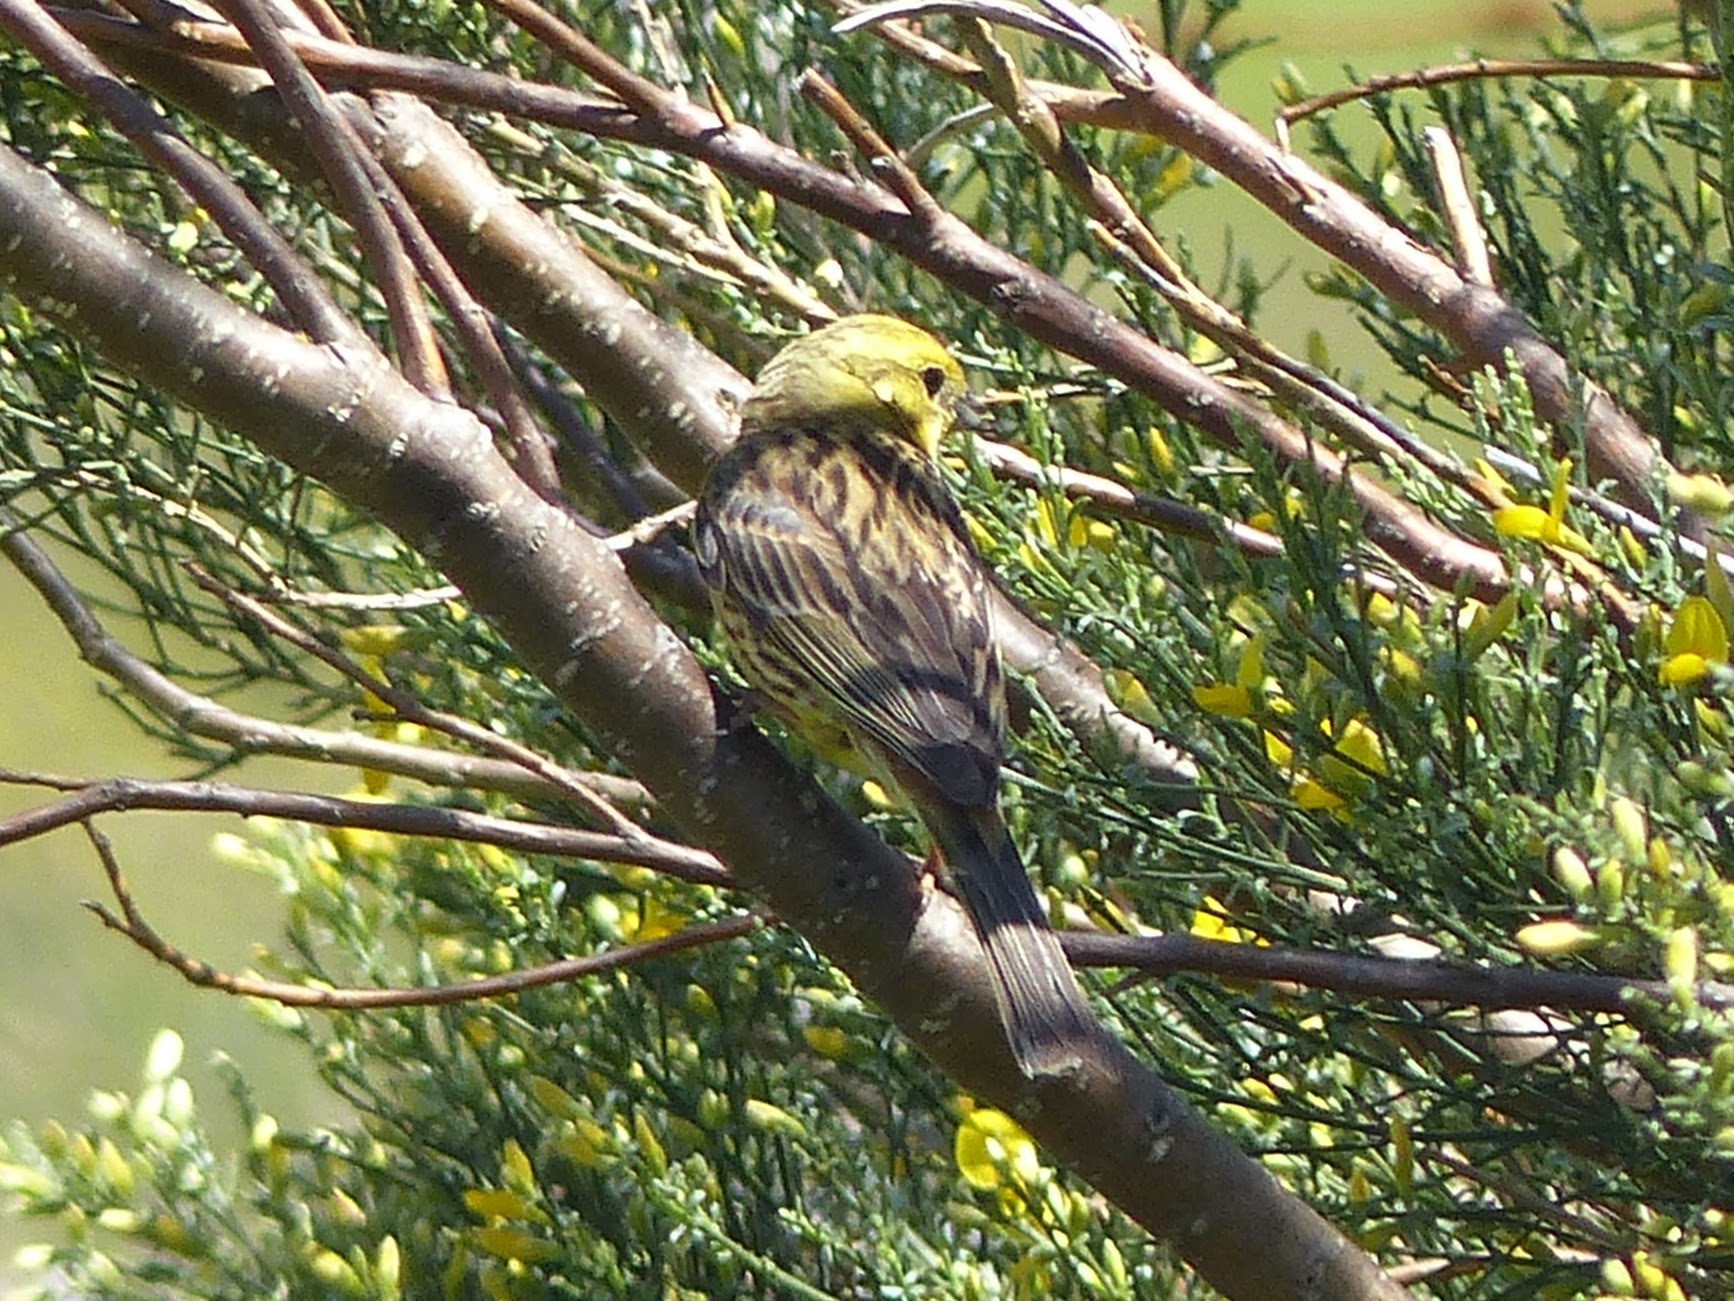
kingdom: Animalia
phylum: Chordata
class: Aves
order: Passeriformes
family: Emberizidae
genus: Emberiza
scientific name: Emberiza citrinella
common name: Yellowhammer
